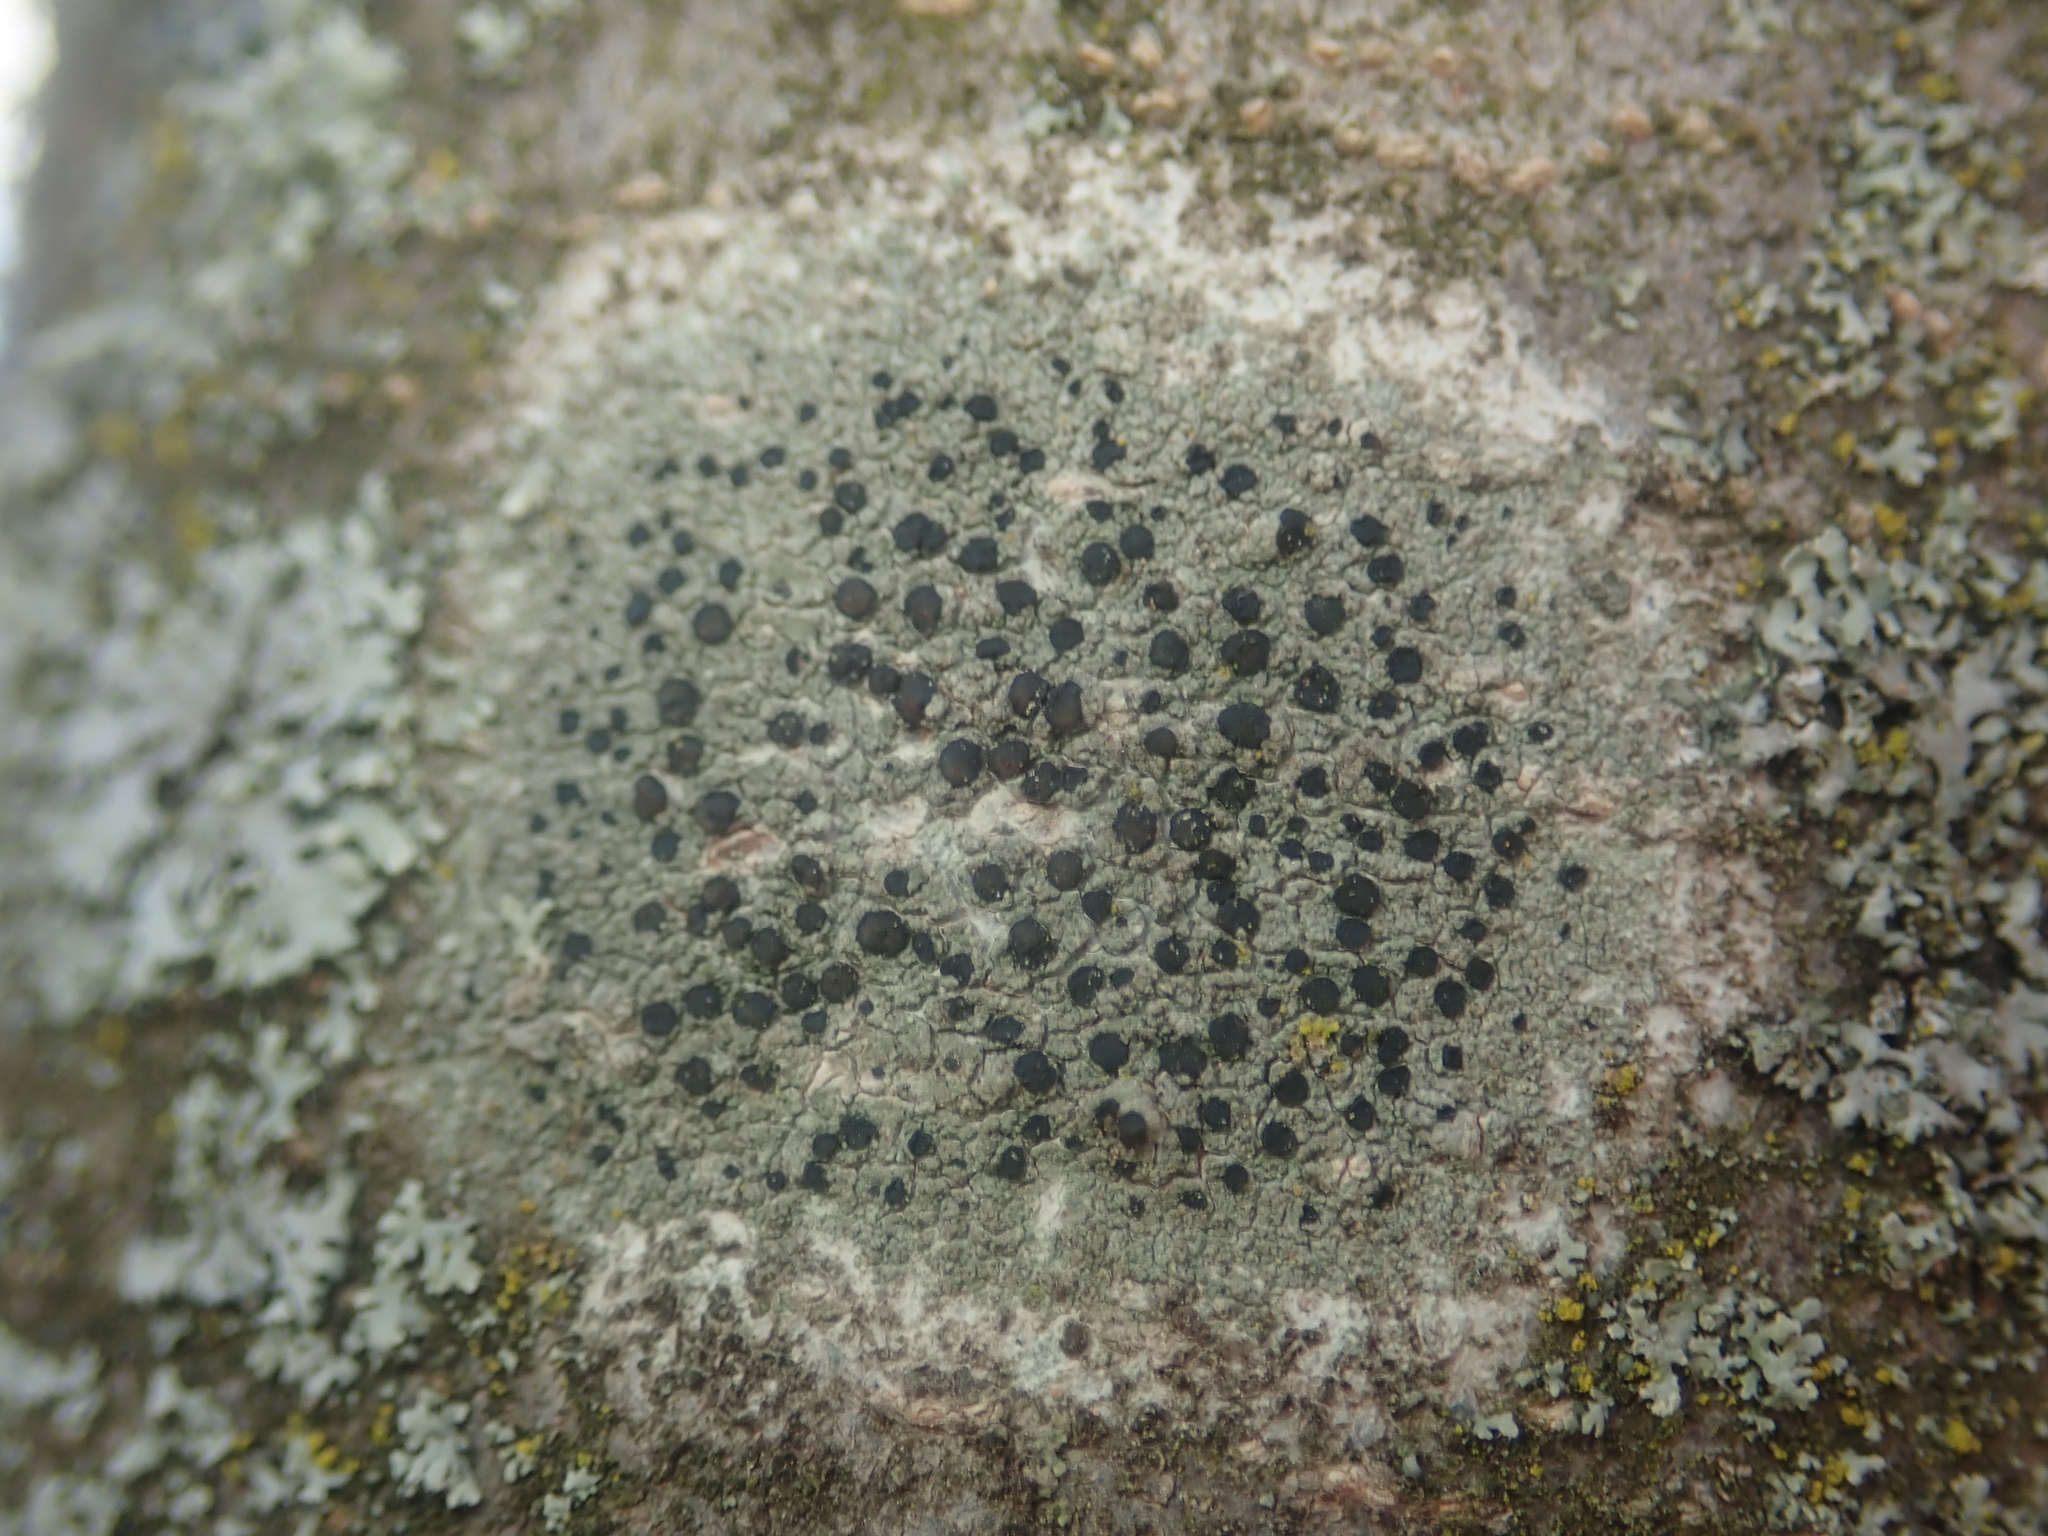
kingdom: Fungi
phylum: Ascomycota
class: Lecanoromycetes
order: Lecanorales
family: Lecanoraceae
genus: Lecidella
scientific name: Lecidella elaeochroma
